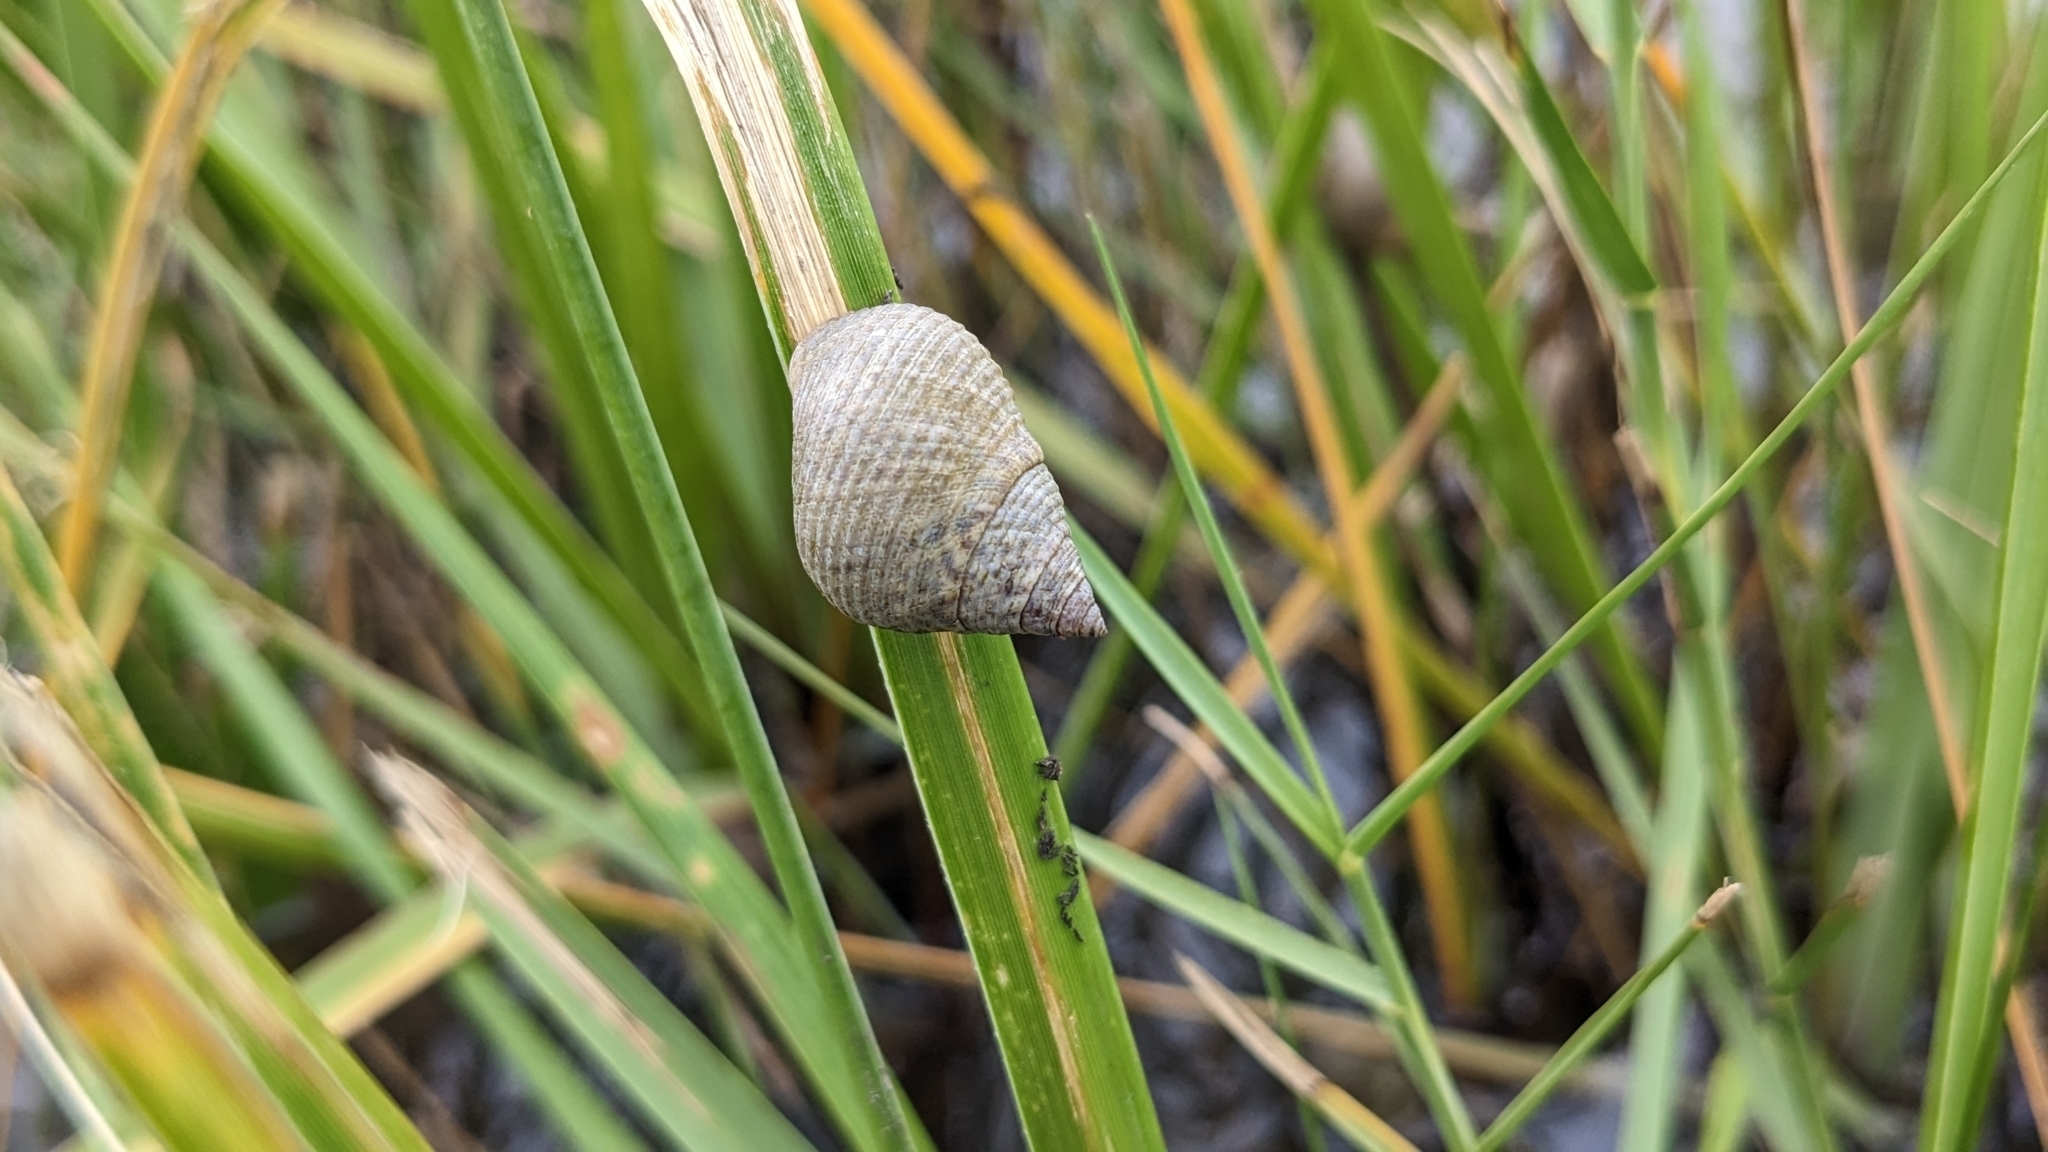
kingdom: Animalia
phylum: Mollusca
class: Gastropoda
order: Littorinimorpha
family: Littorinidae
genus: Littoraria
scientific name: Littoraria irrorata
